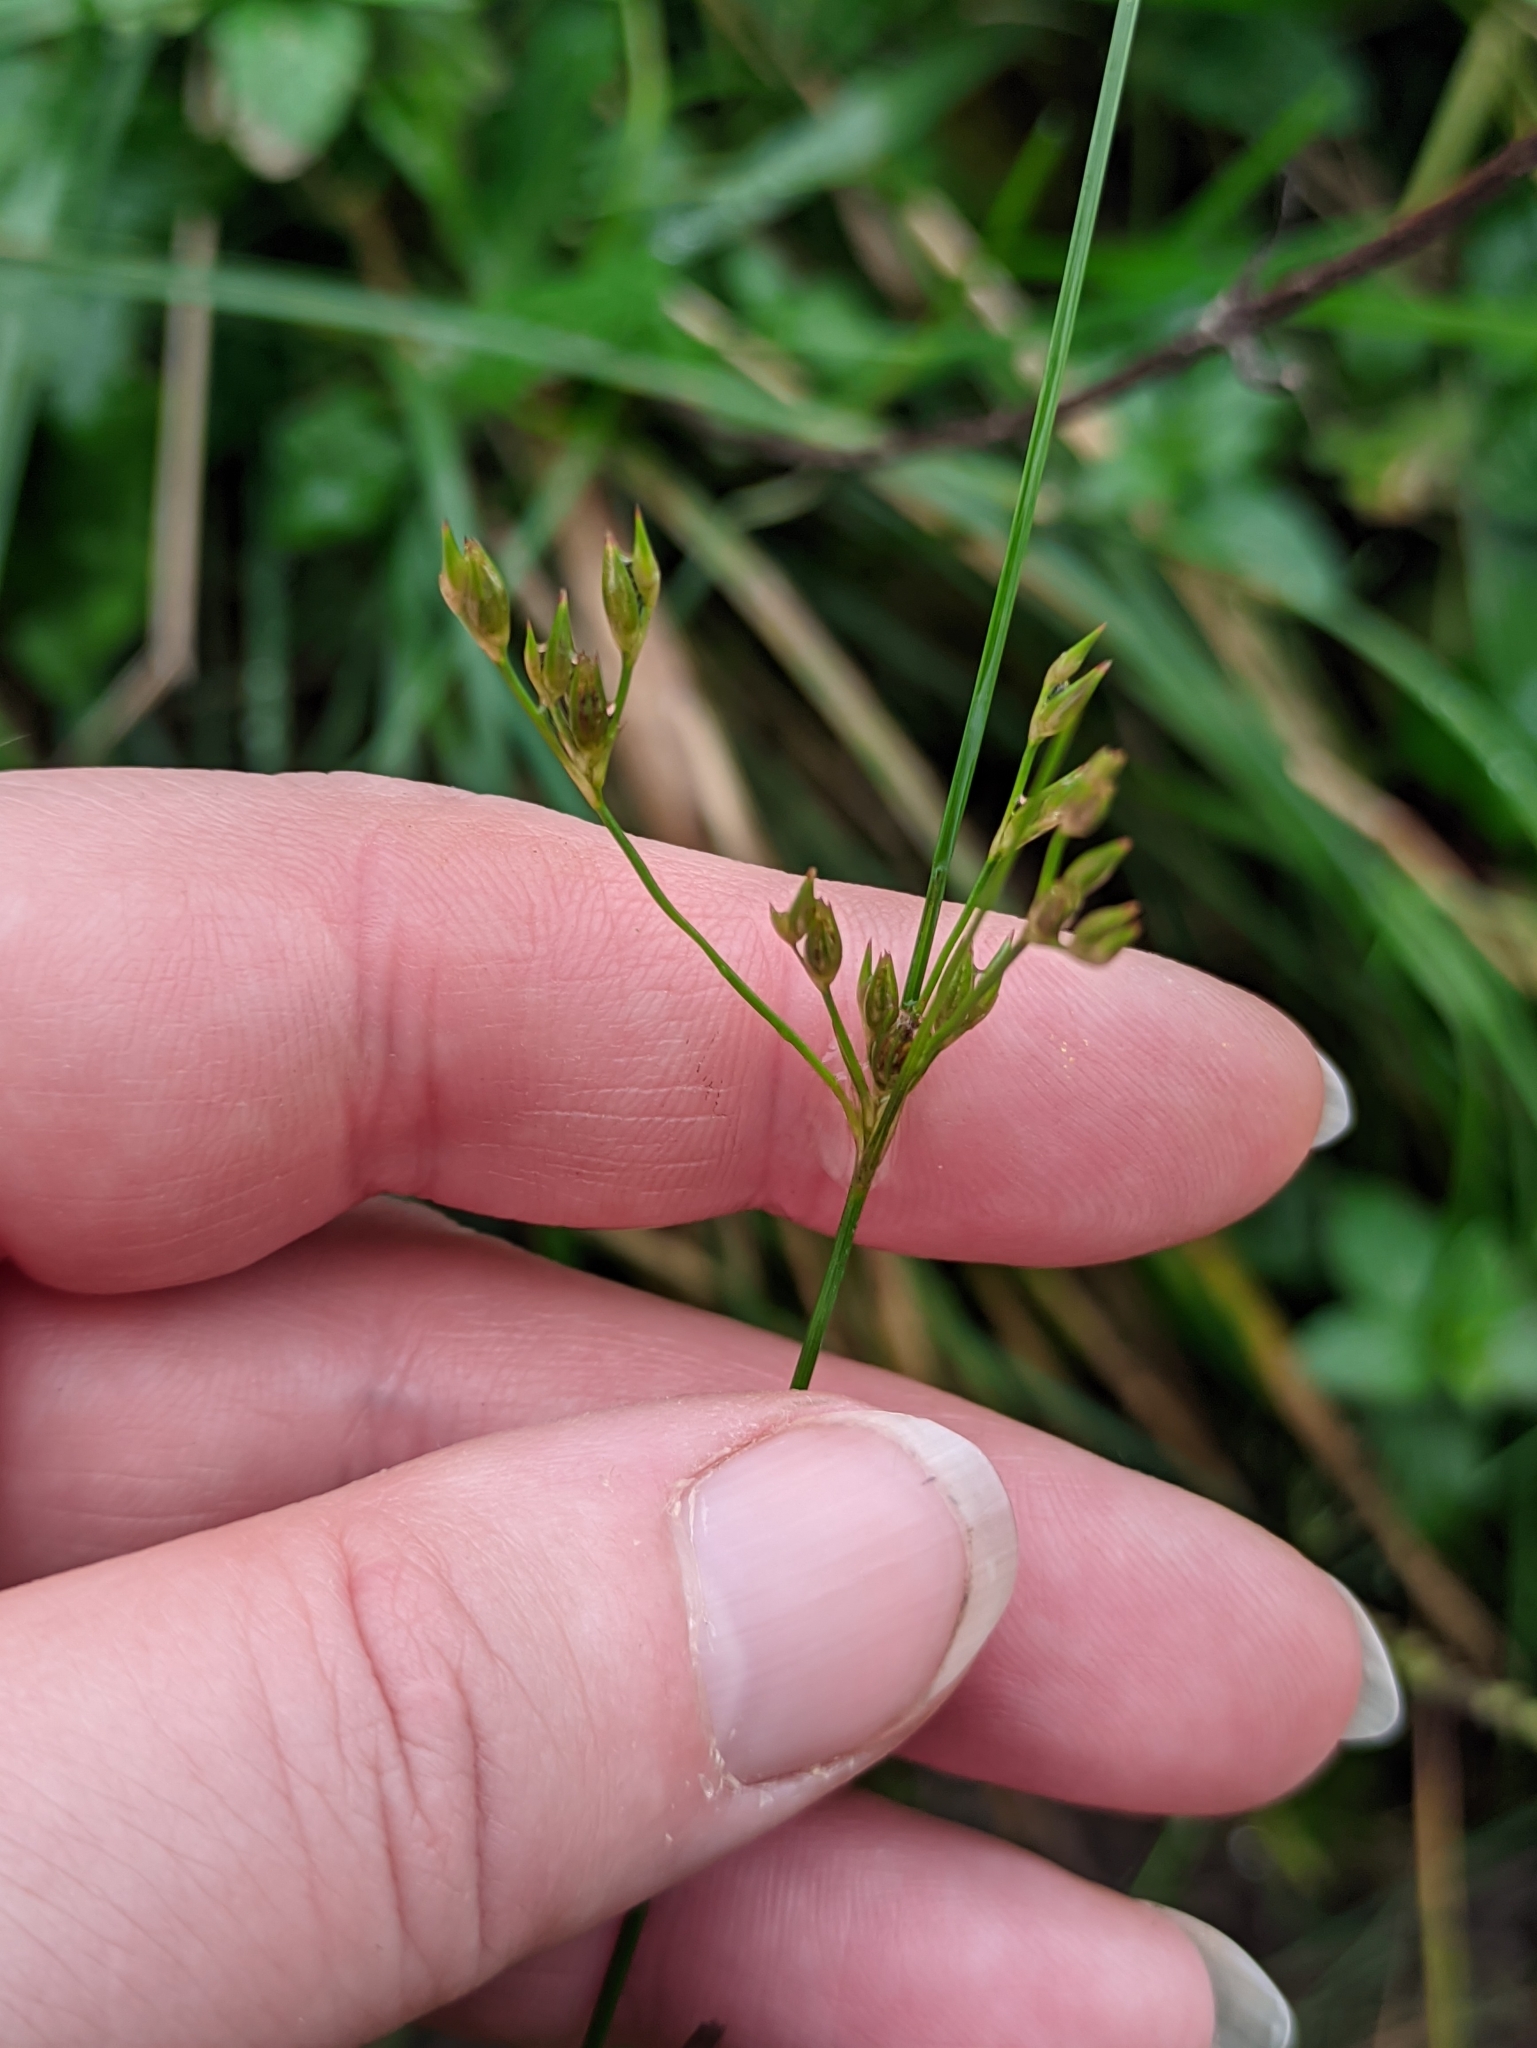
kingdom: Plantae
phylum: Tracheophyta
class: Liliopsida
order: Poales
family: Juncaceae
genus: Juncus
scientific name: Juncus tenuis
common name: Slender rush
